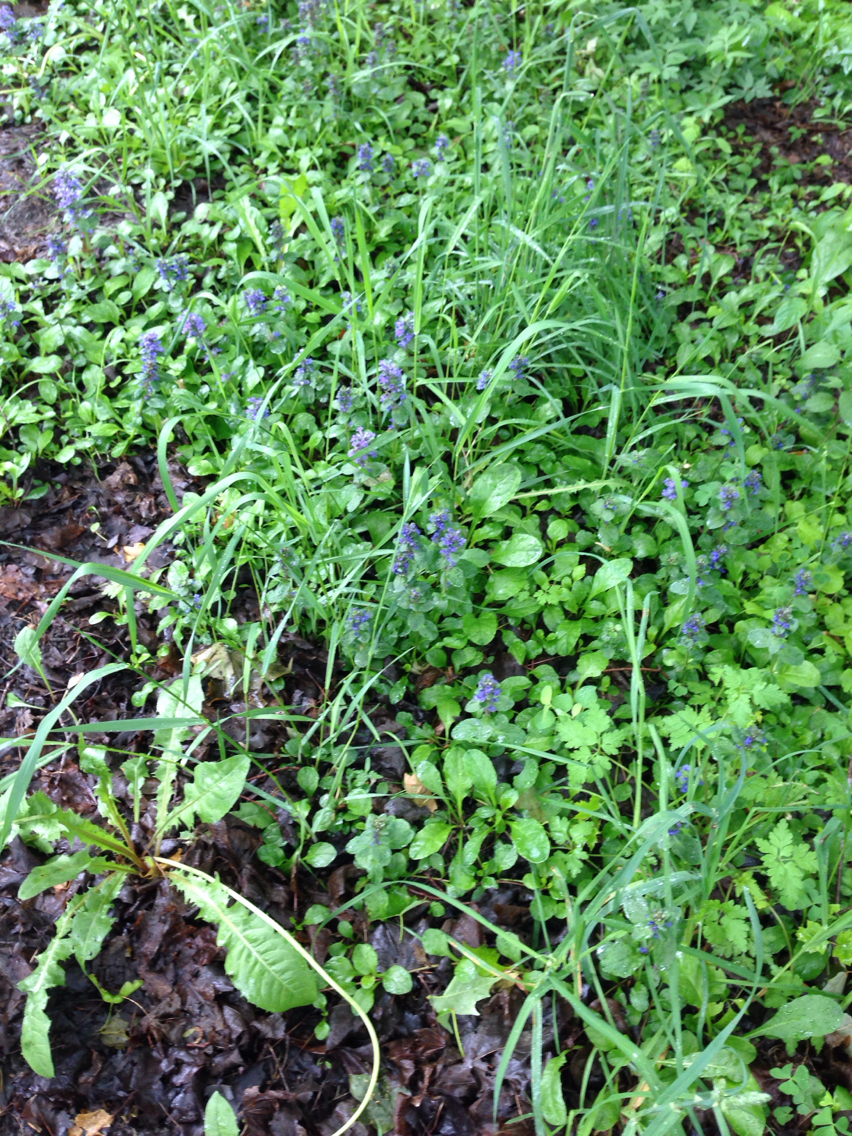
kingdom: Plantae
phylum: Tracheophyta
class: Magnoliopsida
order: Lamiales
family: Lamiaceae
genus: Ajuga
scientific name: Ajuga reptans
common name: Bugle
